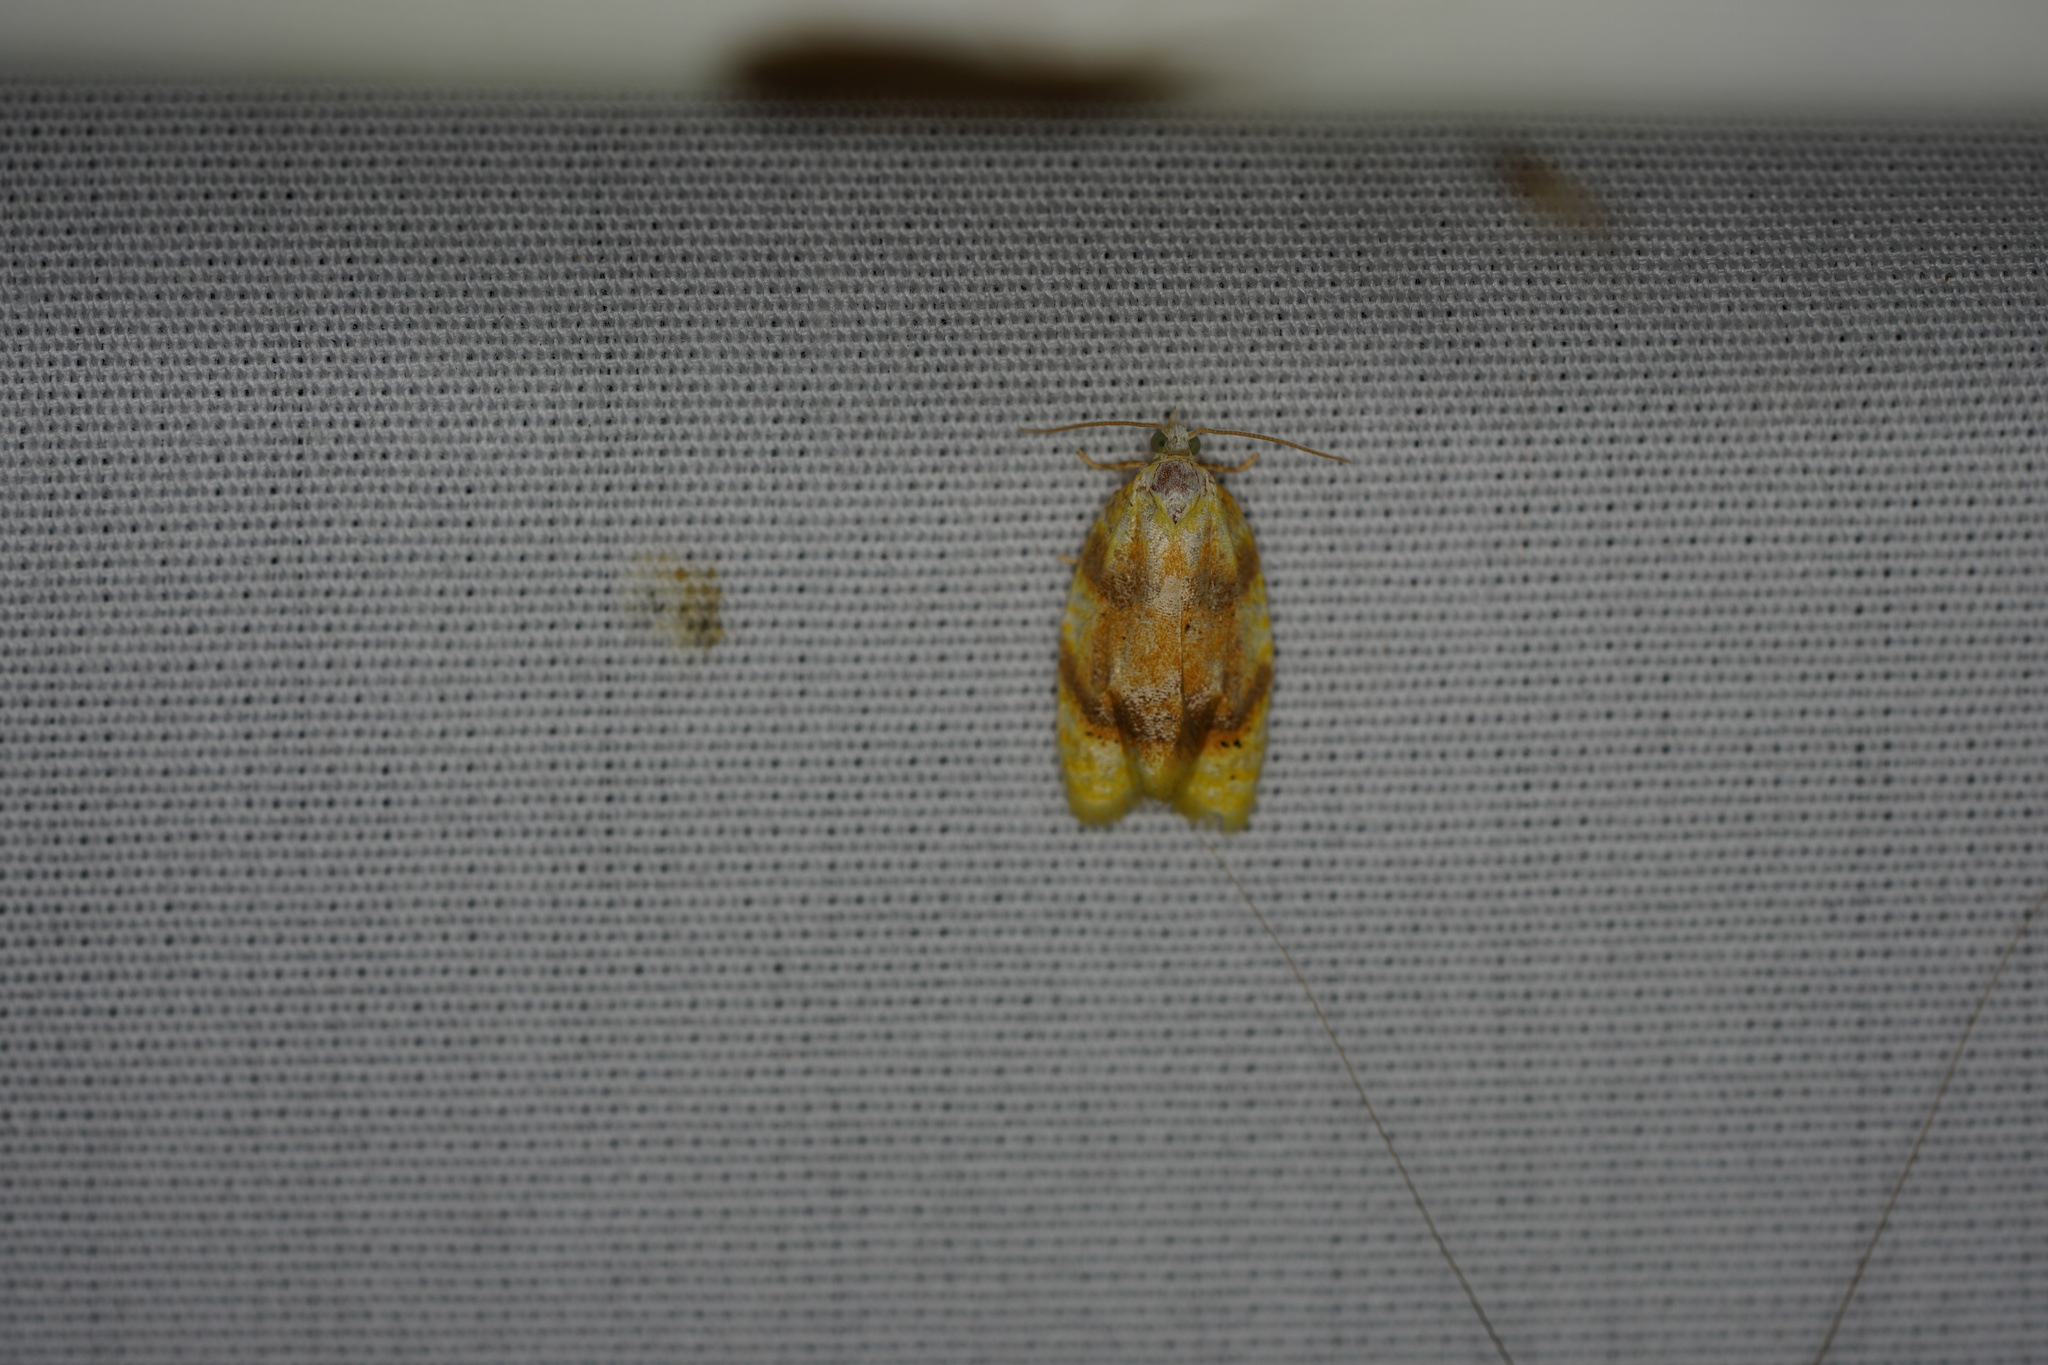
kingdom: Animalia
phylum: Arthropoda
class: Insecta
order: Lepidoptera
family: Tortricidae
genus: Acleris
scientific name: Acleris semipurpurana
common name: Oak leaftier moth
